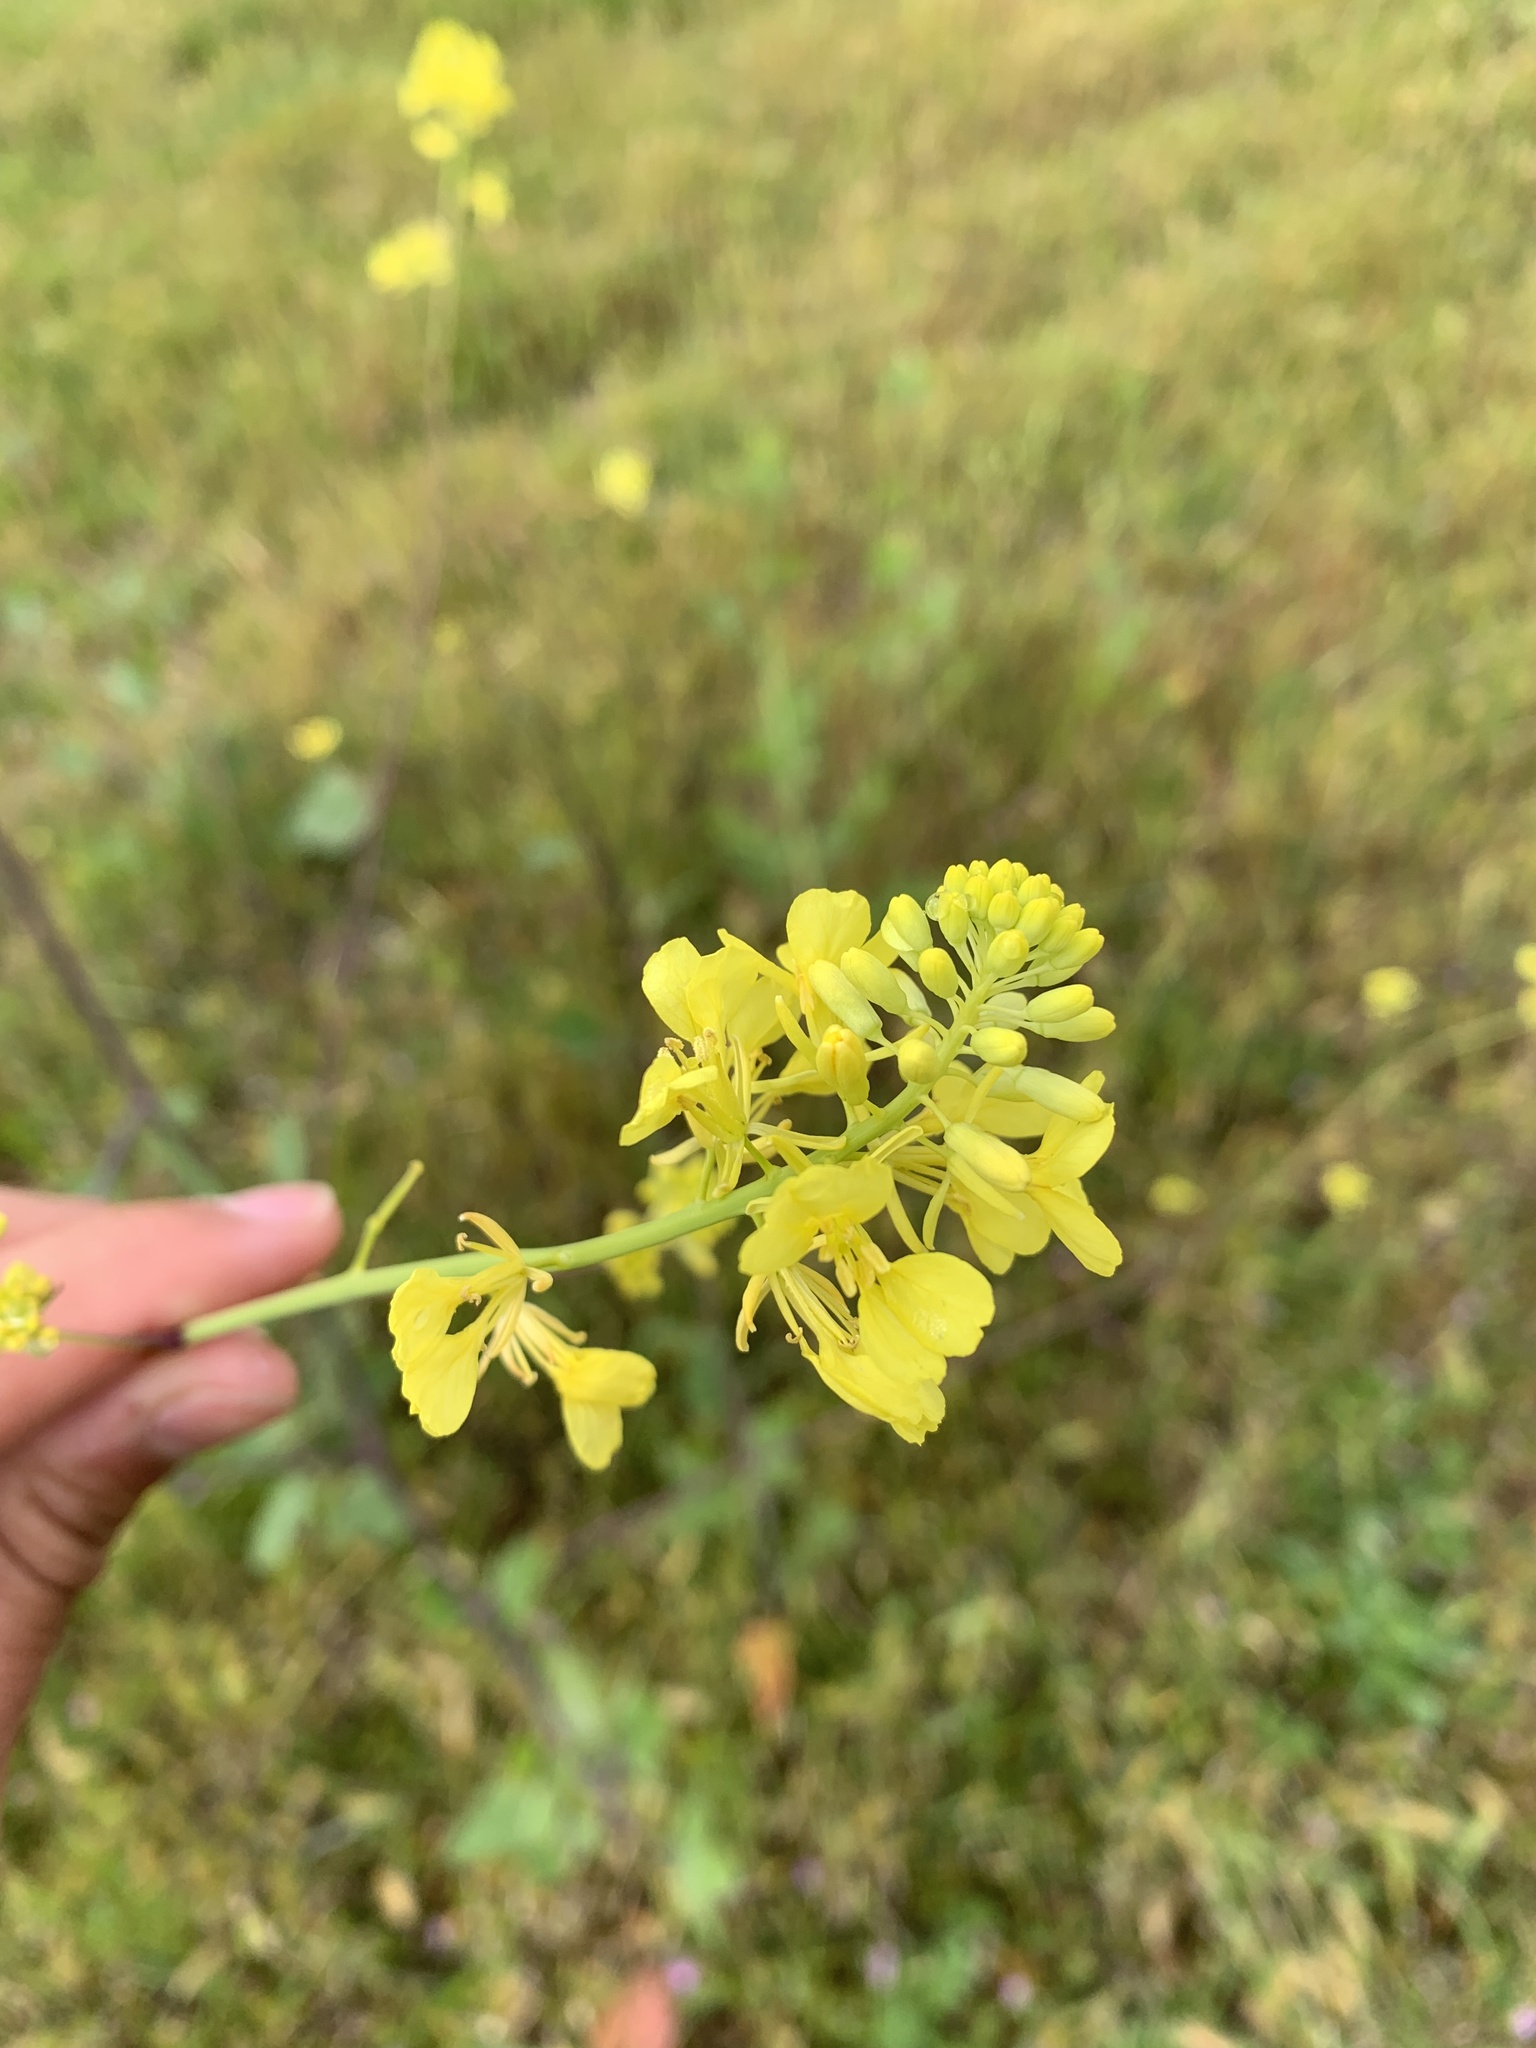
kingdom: Plantae
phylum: Tracheophyta
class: Magnoliopsida
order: Brassicales
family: Brassicaceae
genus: Brassica
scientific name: Brassica nigra
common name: Black mustard
